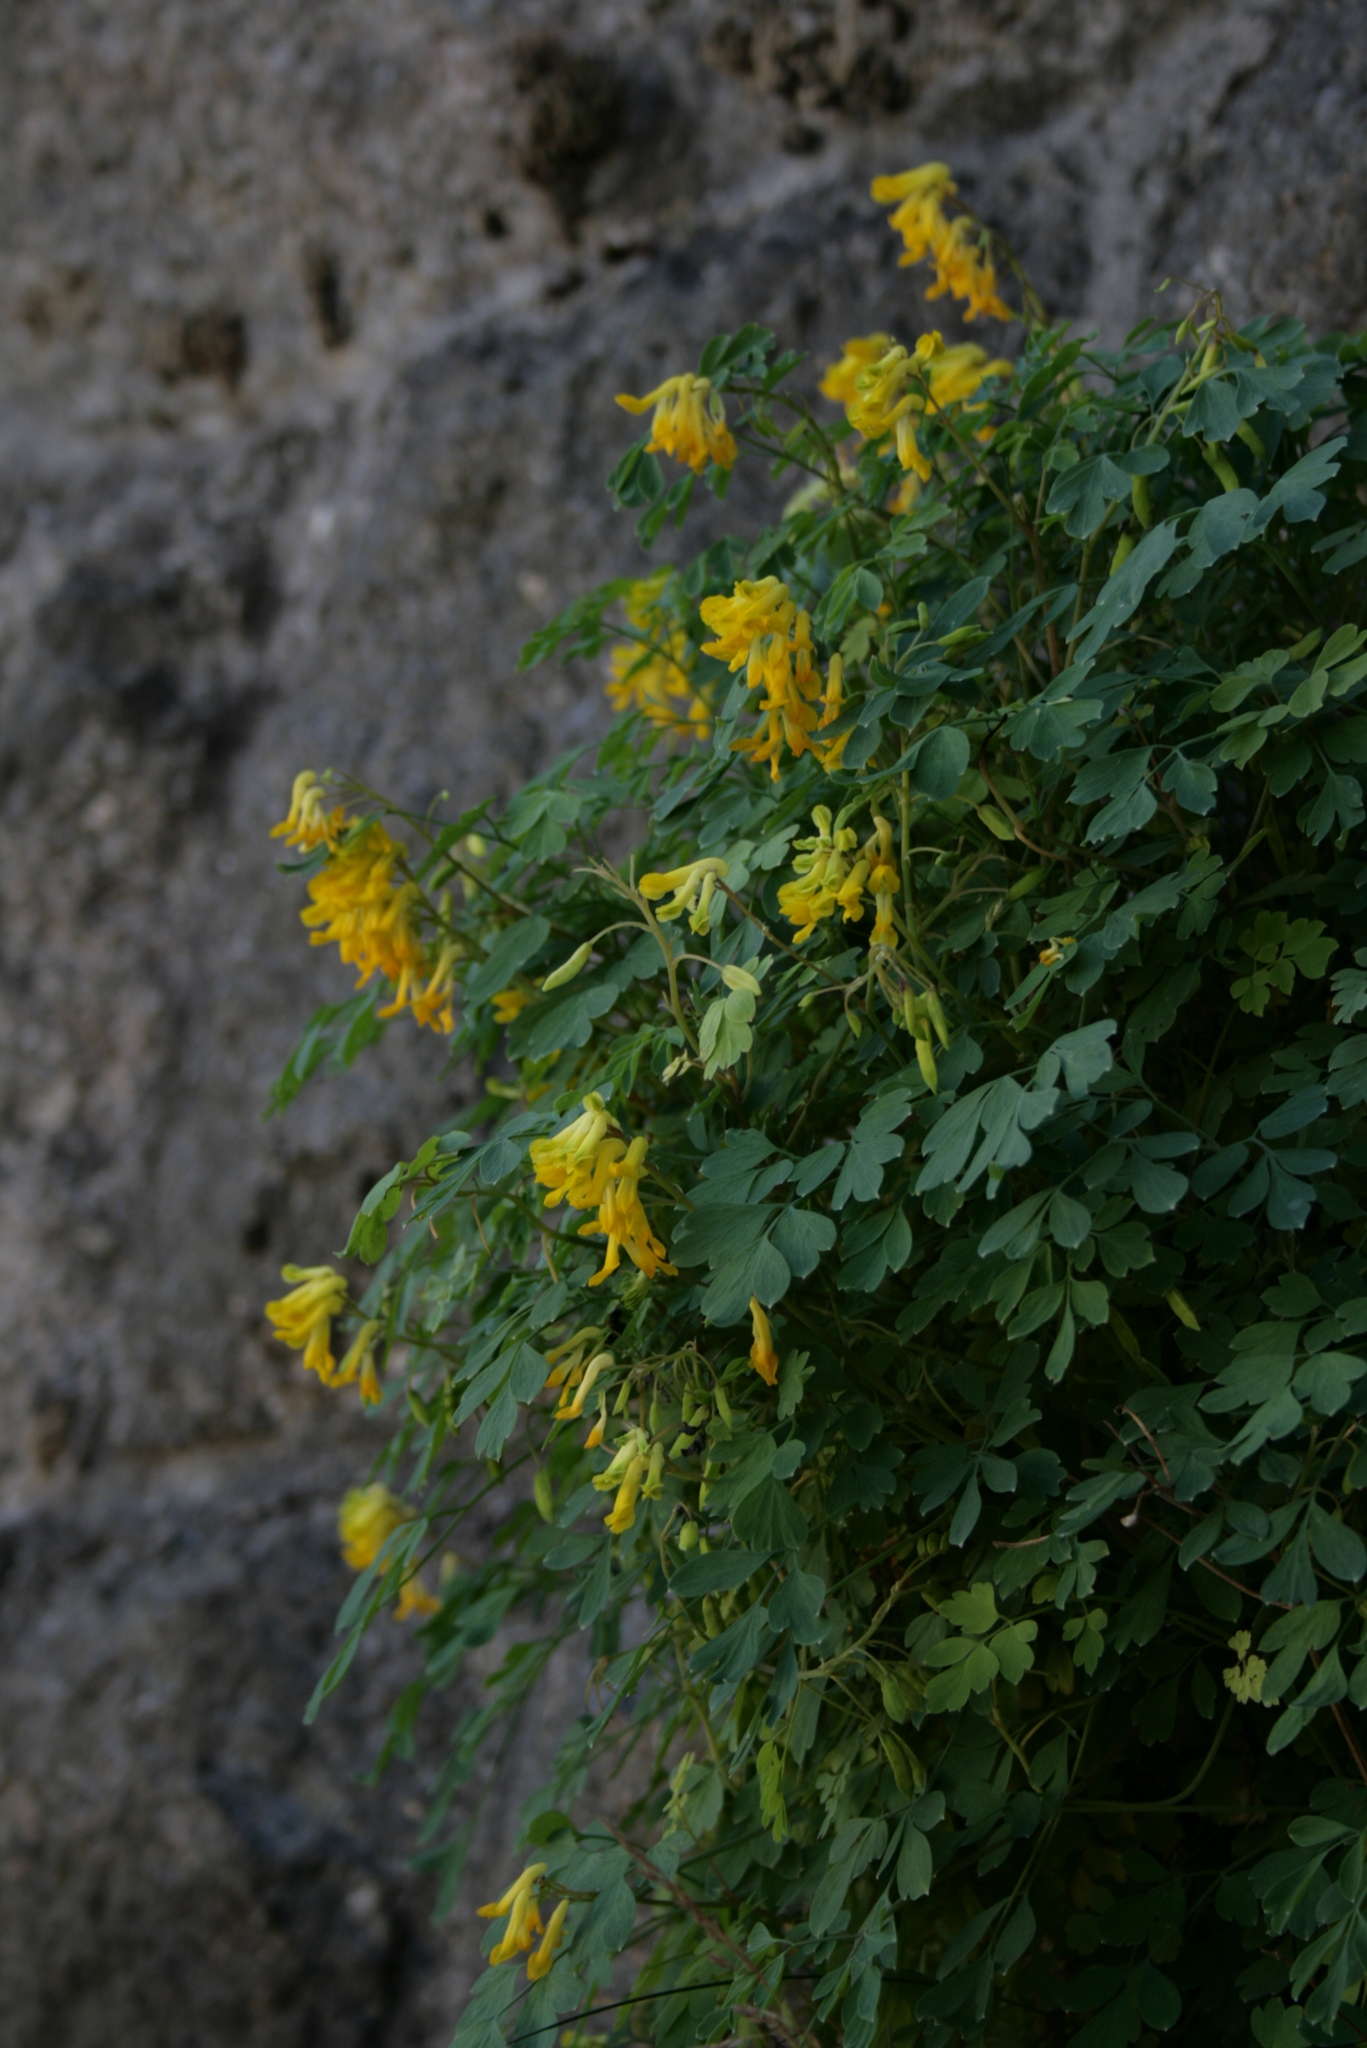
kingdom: Plantae
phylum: Tracheophyta
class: Magnoliopsida
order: Ranunculales
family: Papaveraceae
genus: Pseudofumaria
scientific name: Pseudofumaria lutea
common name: Yellow corydalis
